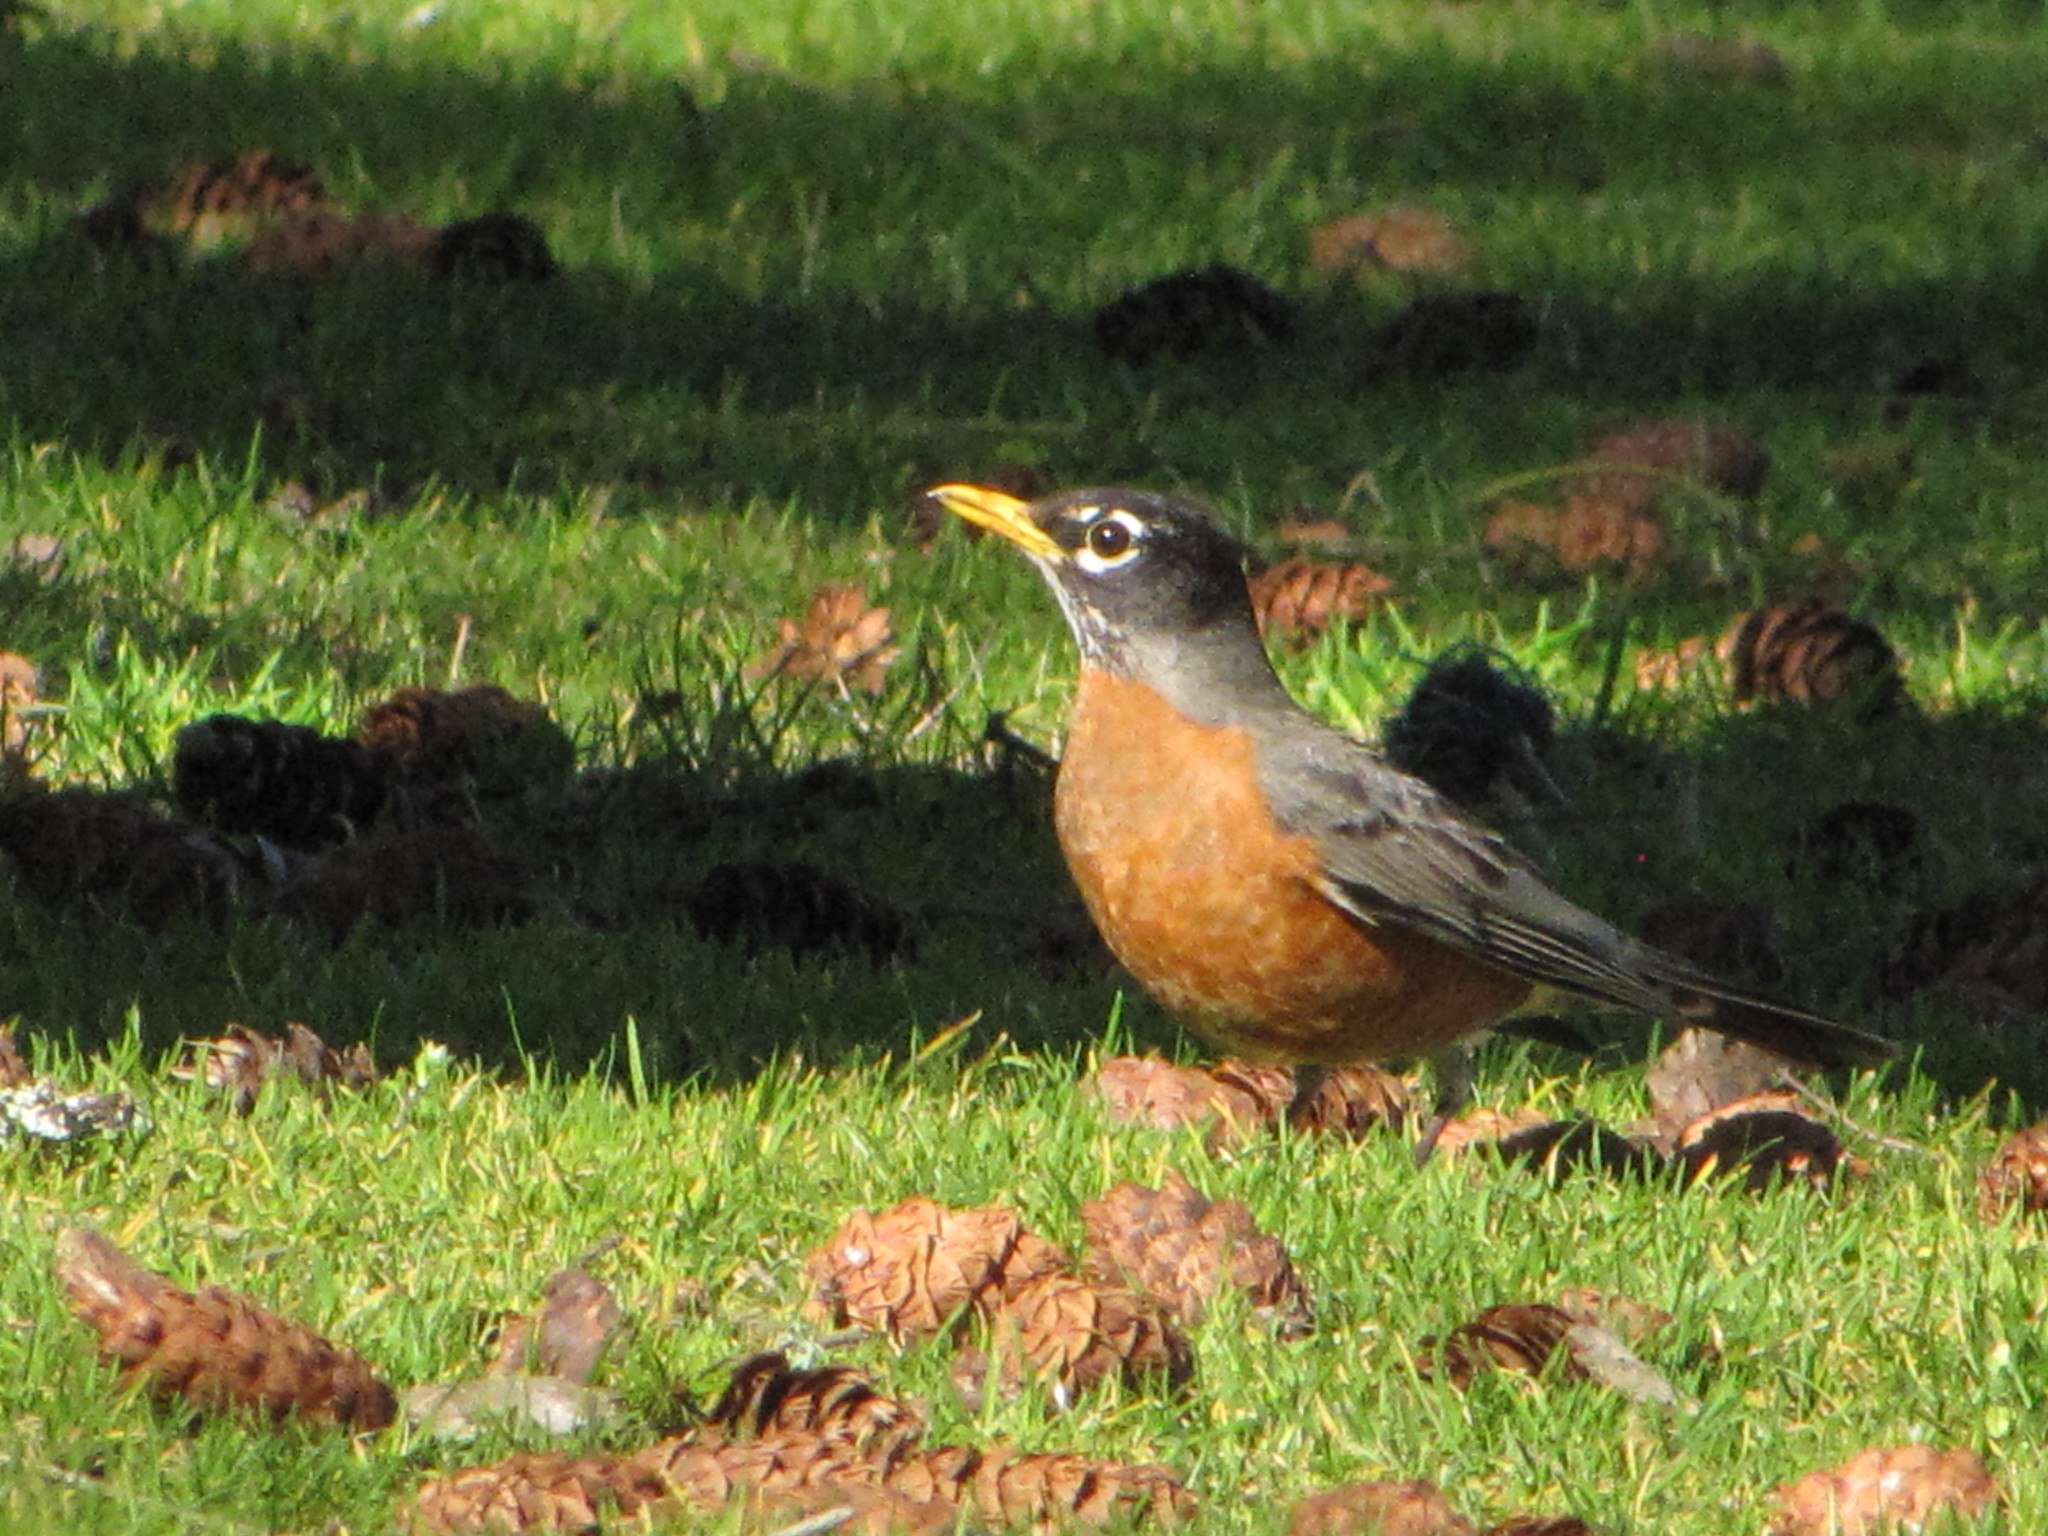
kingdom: Animalia
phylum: Chordata
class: Aves
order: Passeriformes
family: Turdidae
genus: Turdus
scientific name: Turdus migratorius
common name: American robin
